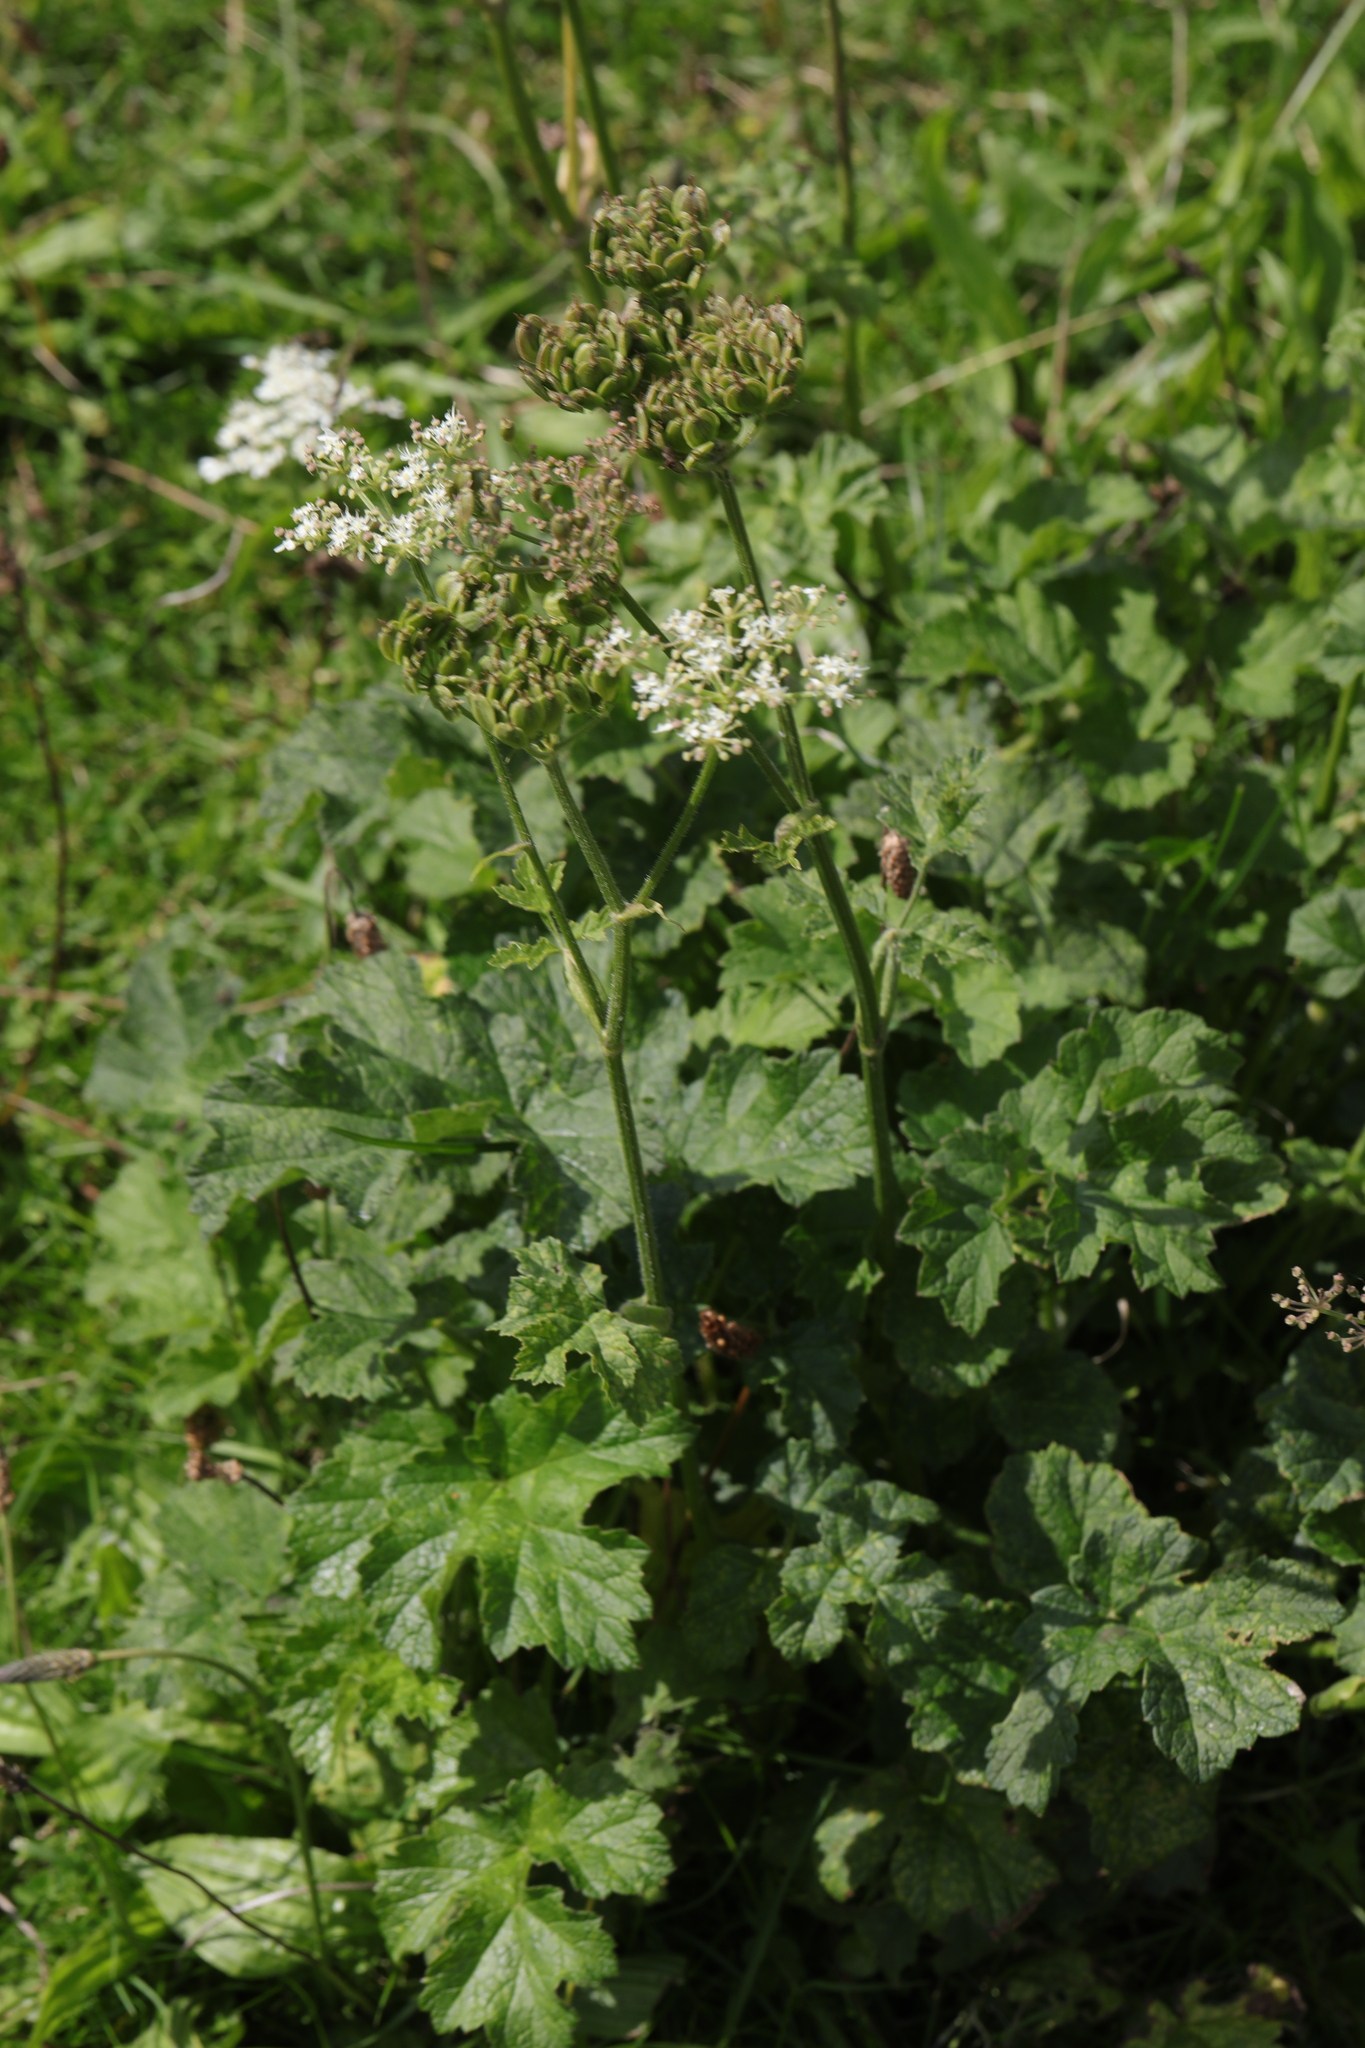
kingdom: Plantae
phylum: Tracheophyta
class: Magnoliopsida
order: Apiales
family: Apiaceae
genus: Heracleum
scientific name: Heracleum sphondylium
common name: Hogweed
